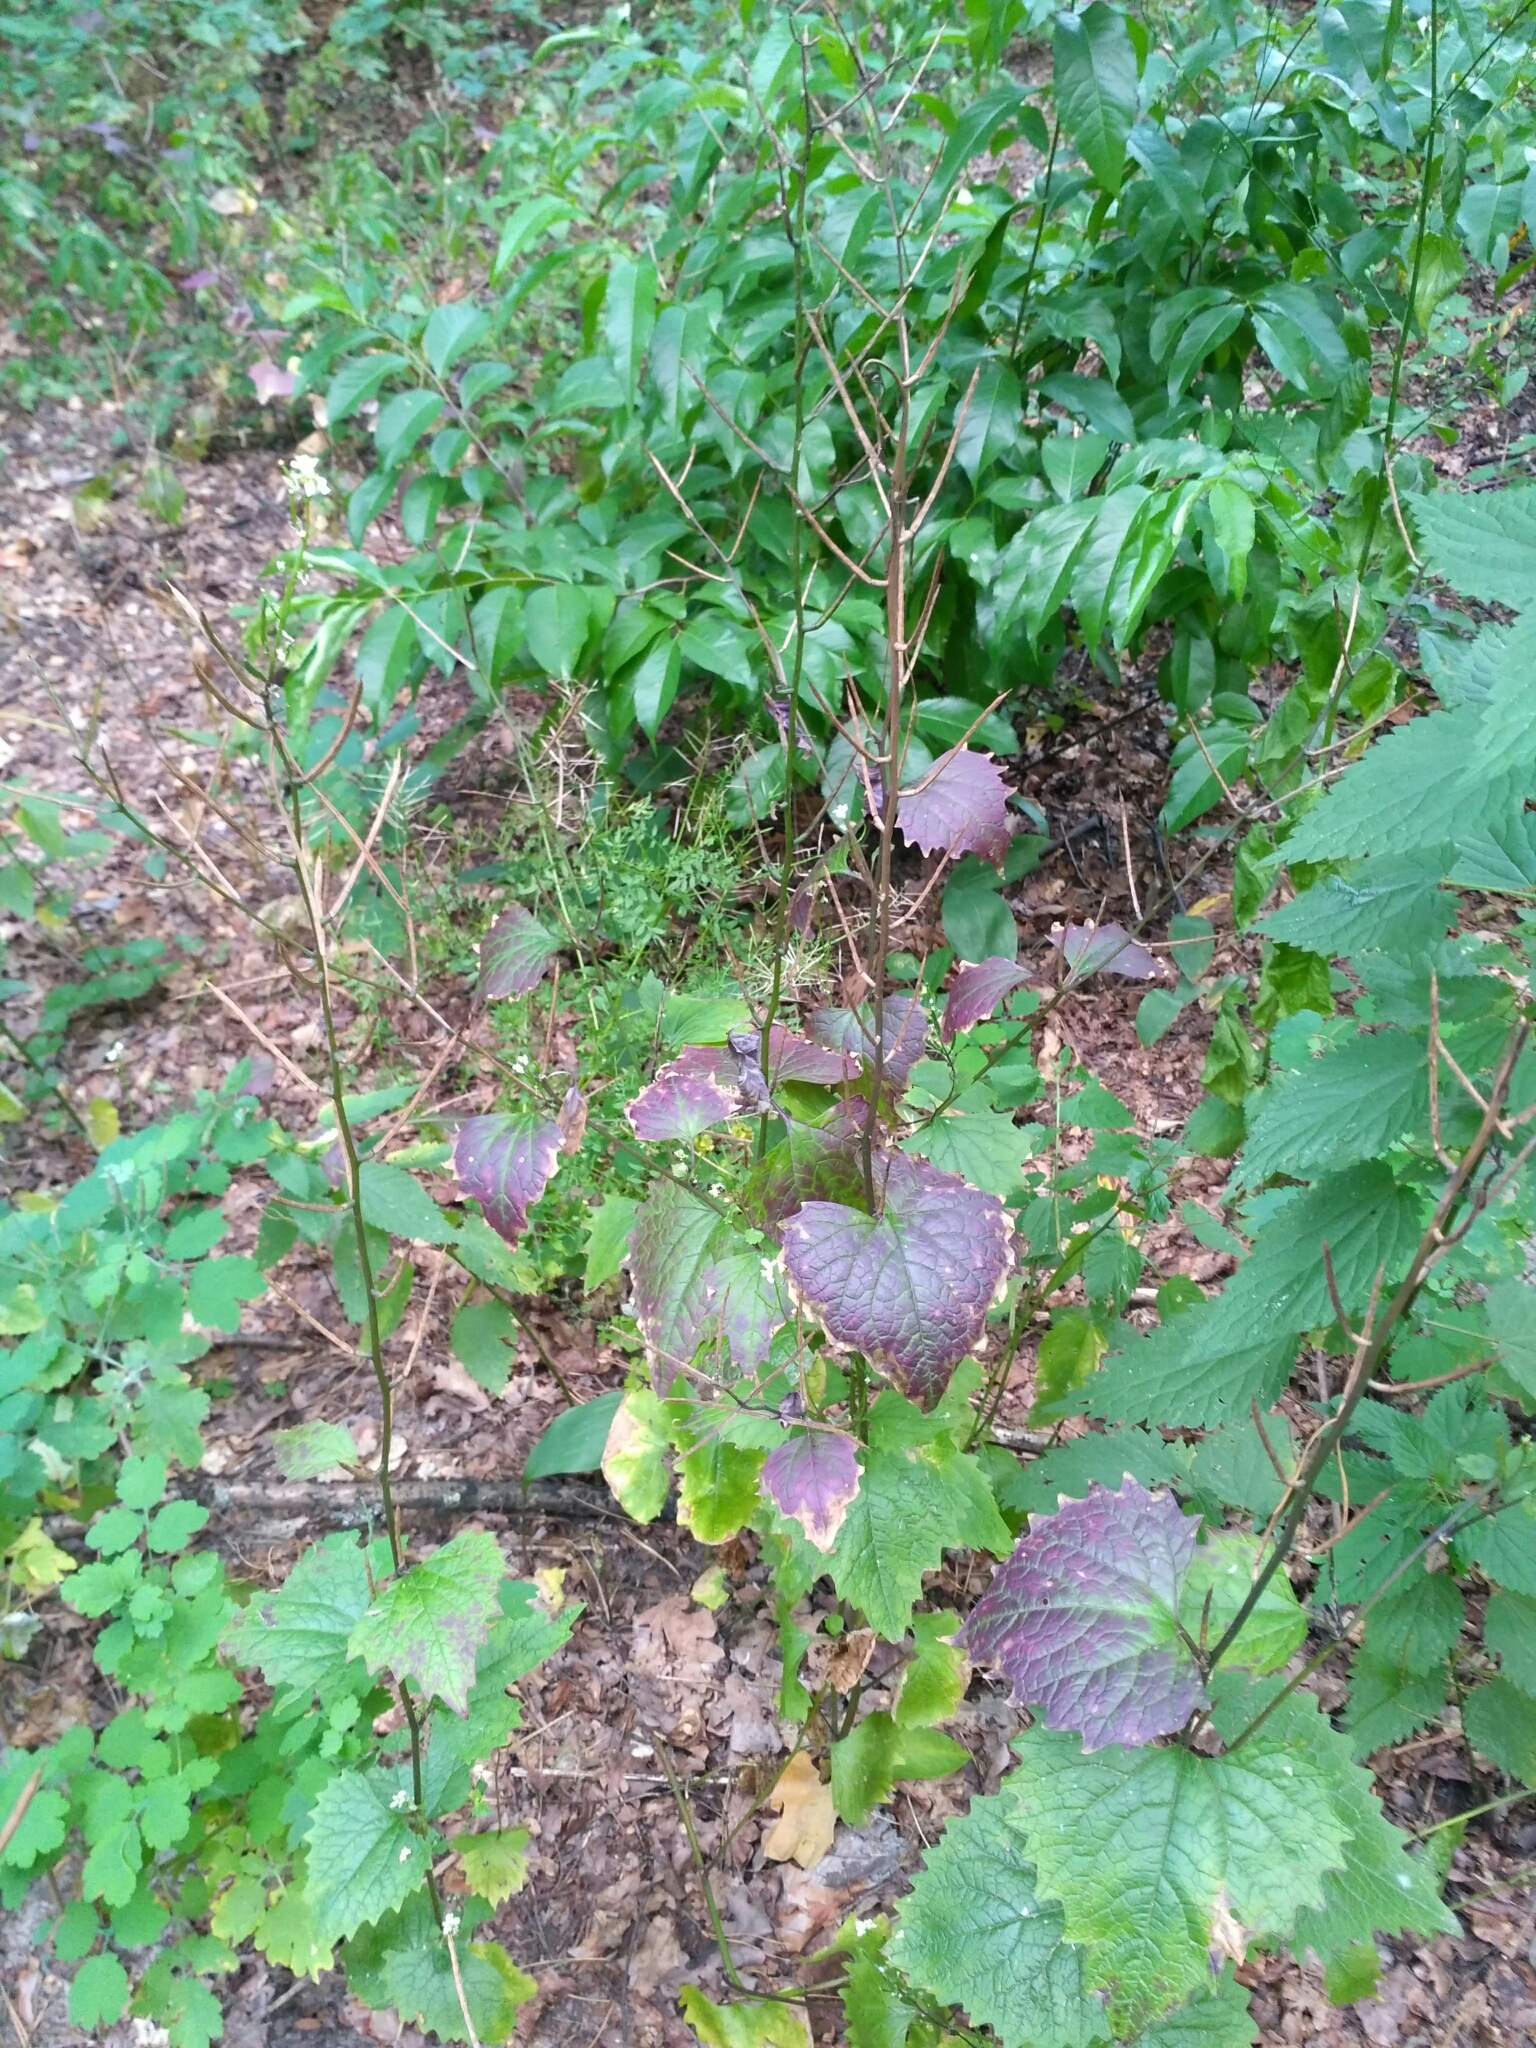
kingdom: Plantae
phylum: Tracheophyta
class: Magnoliopsida
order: Brassicales
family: Brassicaceae
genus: Alliaria
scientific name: Alliaria petiolata
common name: Garlic mustard
